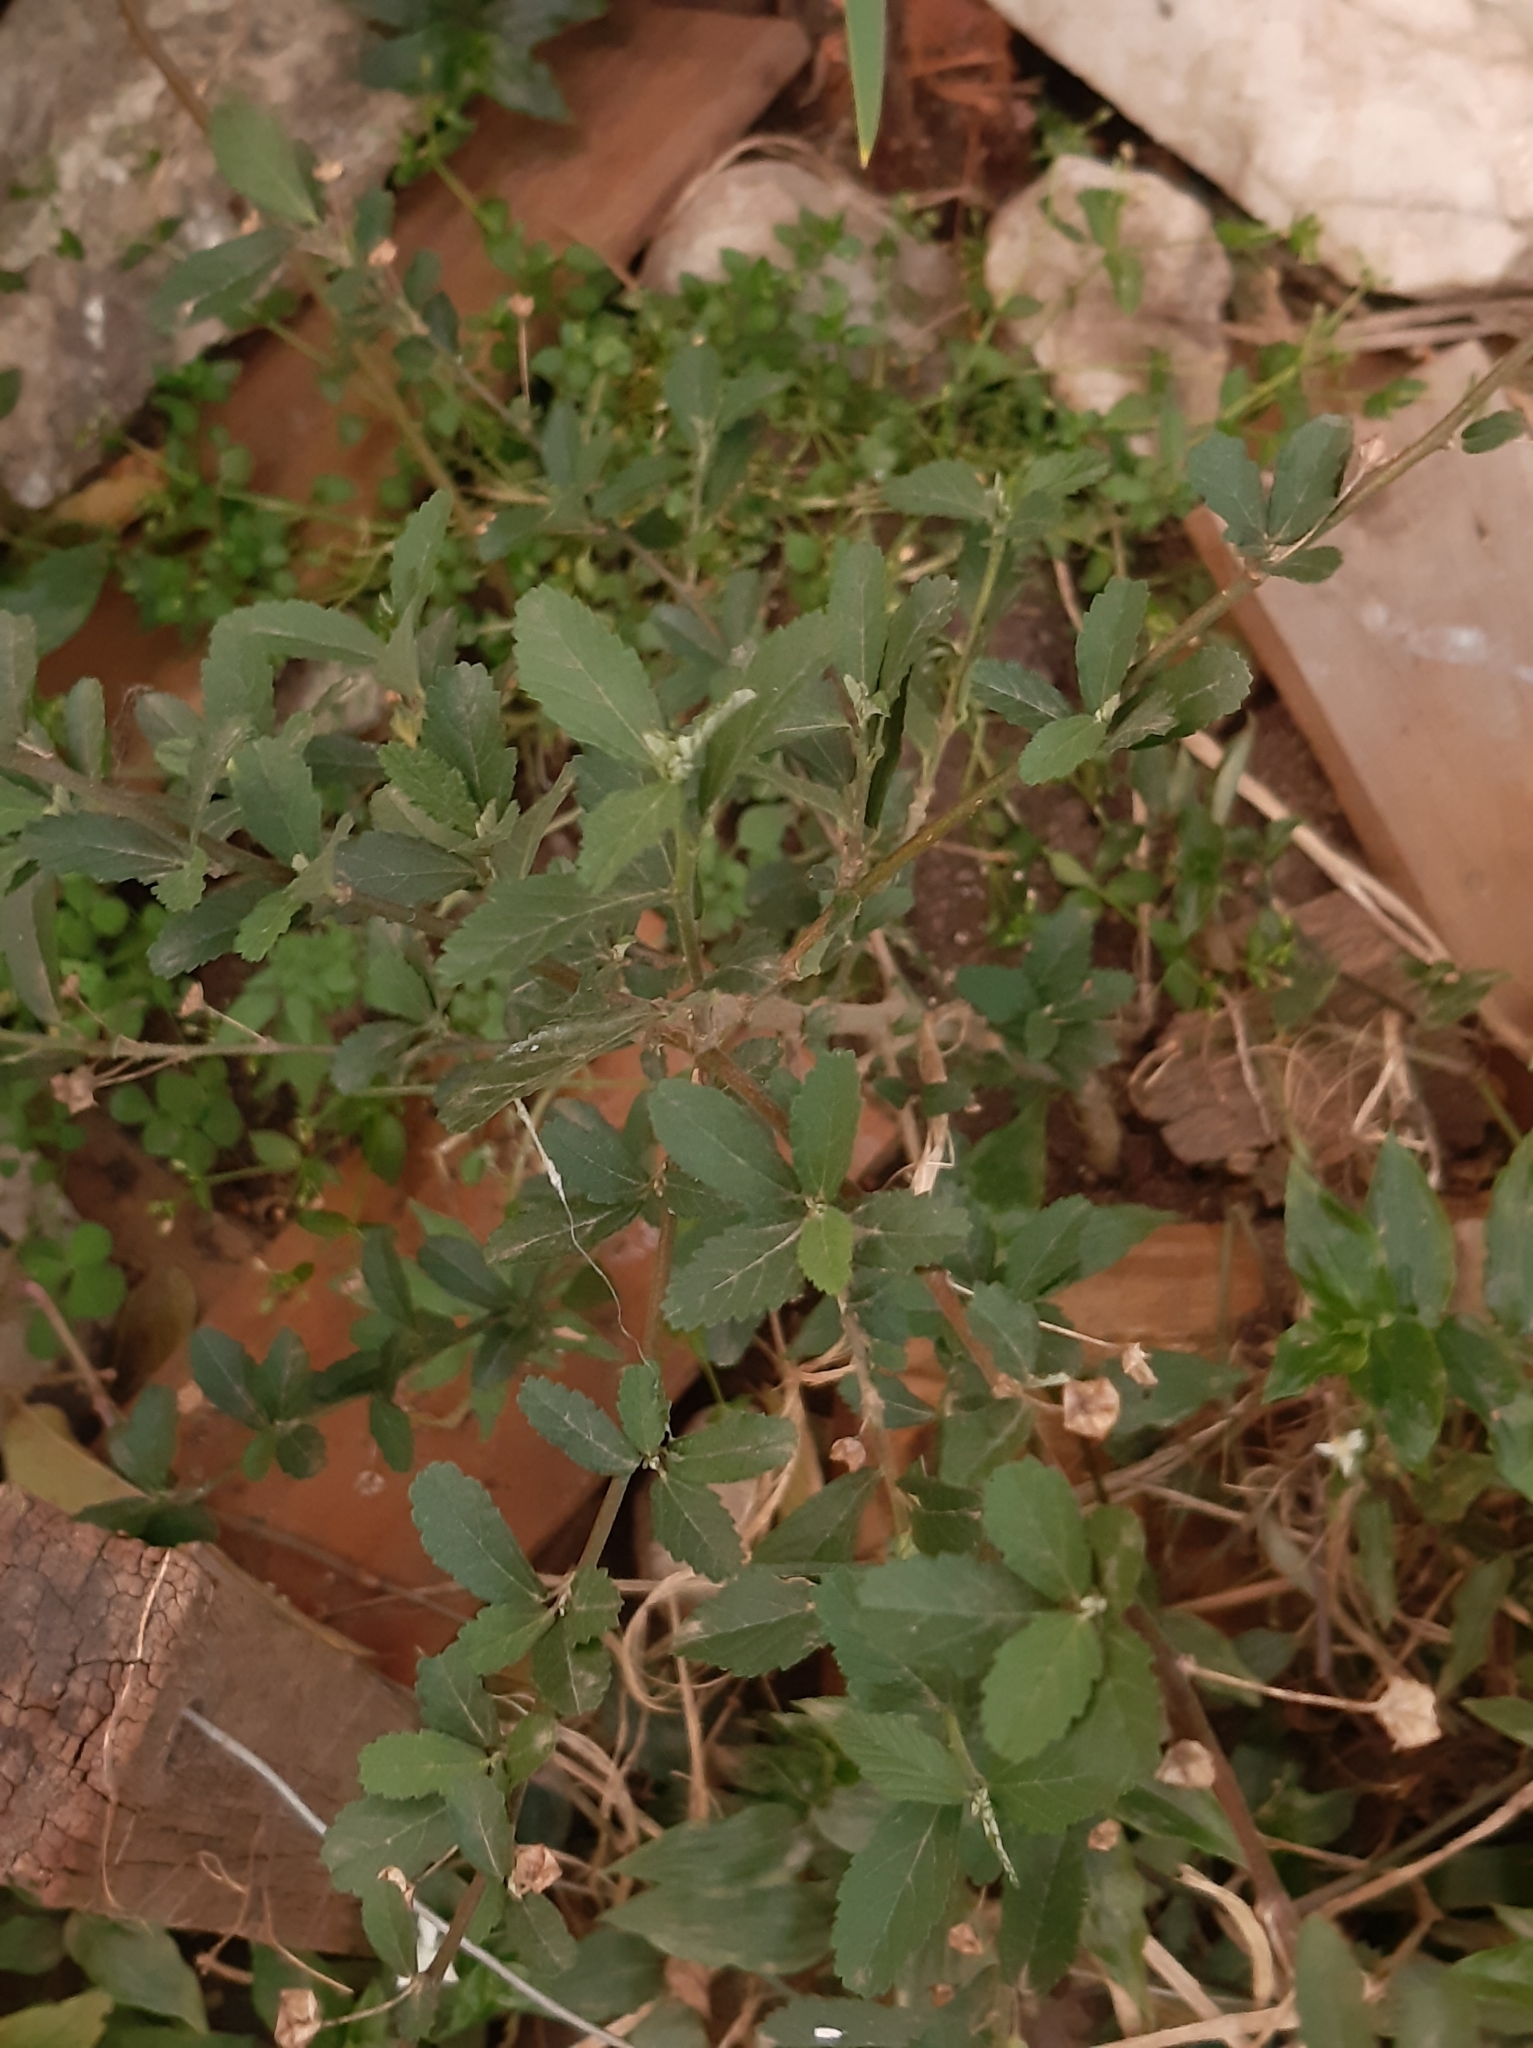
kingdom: Plantae
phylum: Tracheophyta
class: Magnoliopsida
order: Malvales
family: Malvaceae
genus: Sida
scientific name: Sida rhombifolia
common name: Queensland-hemp
